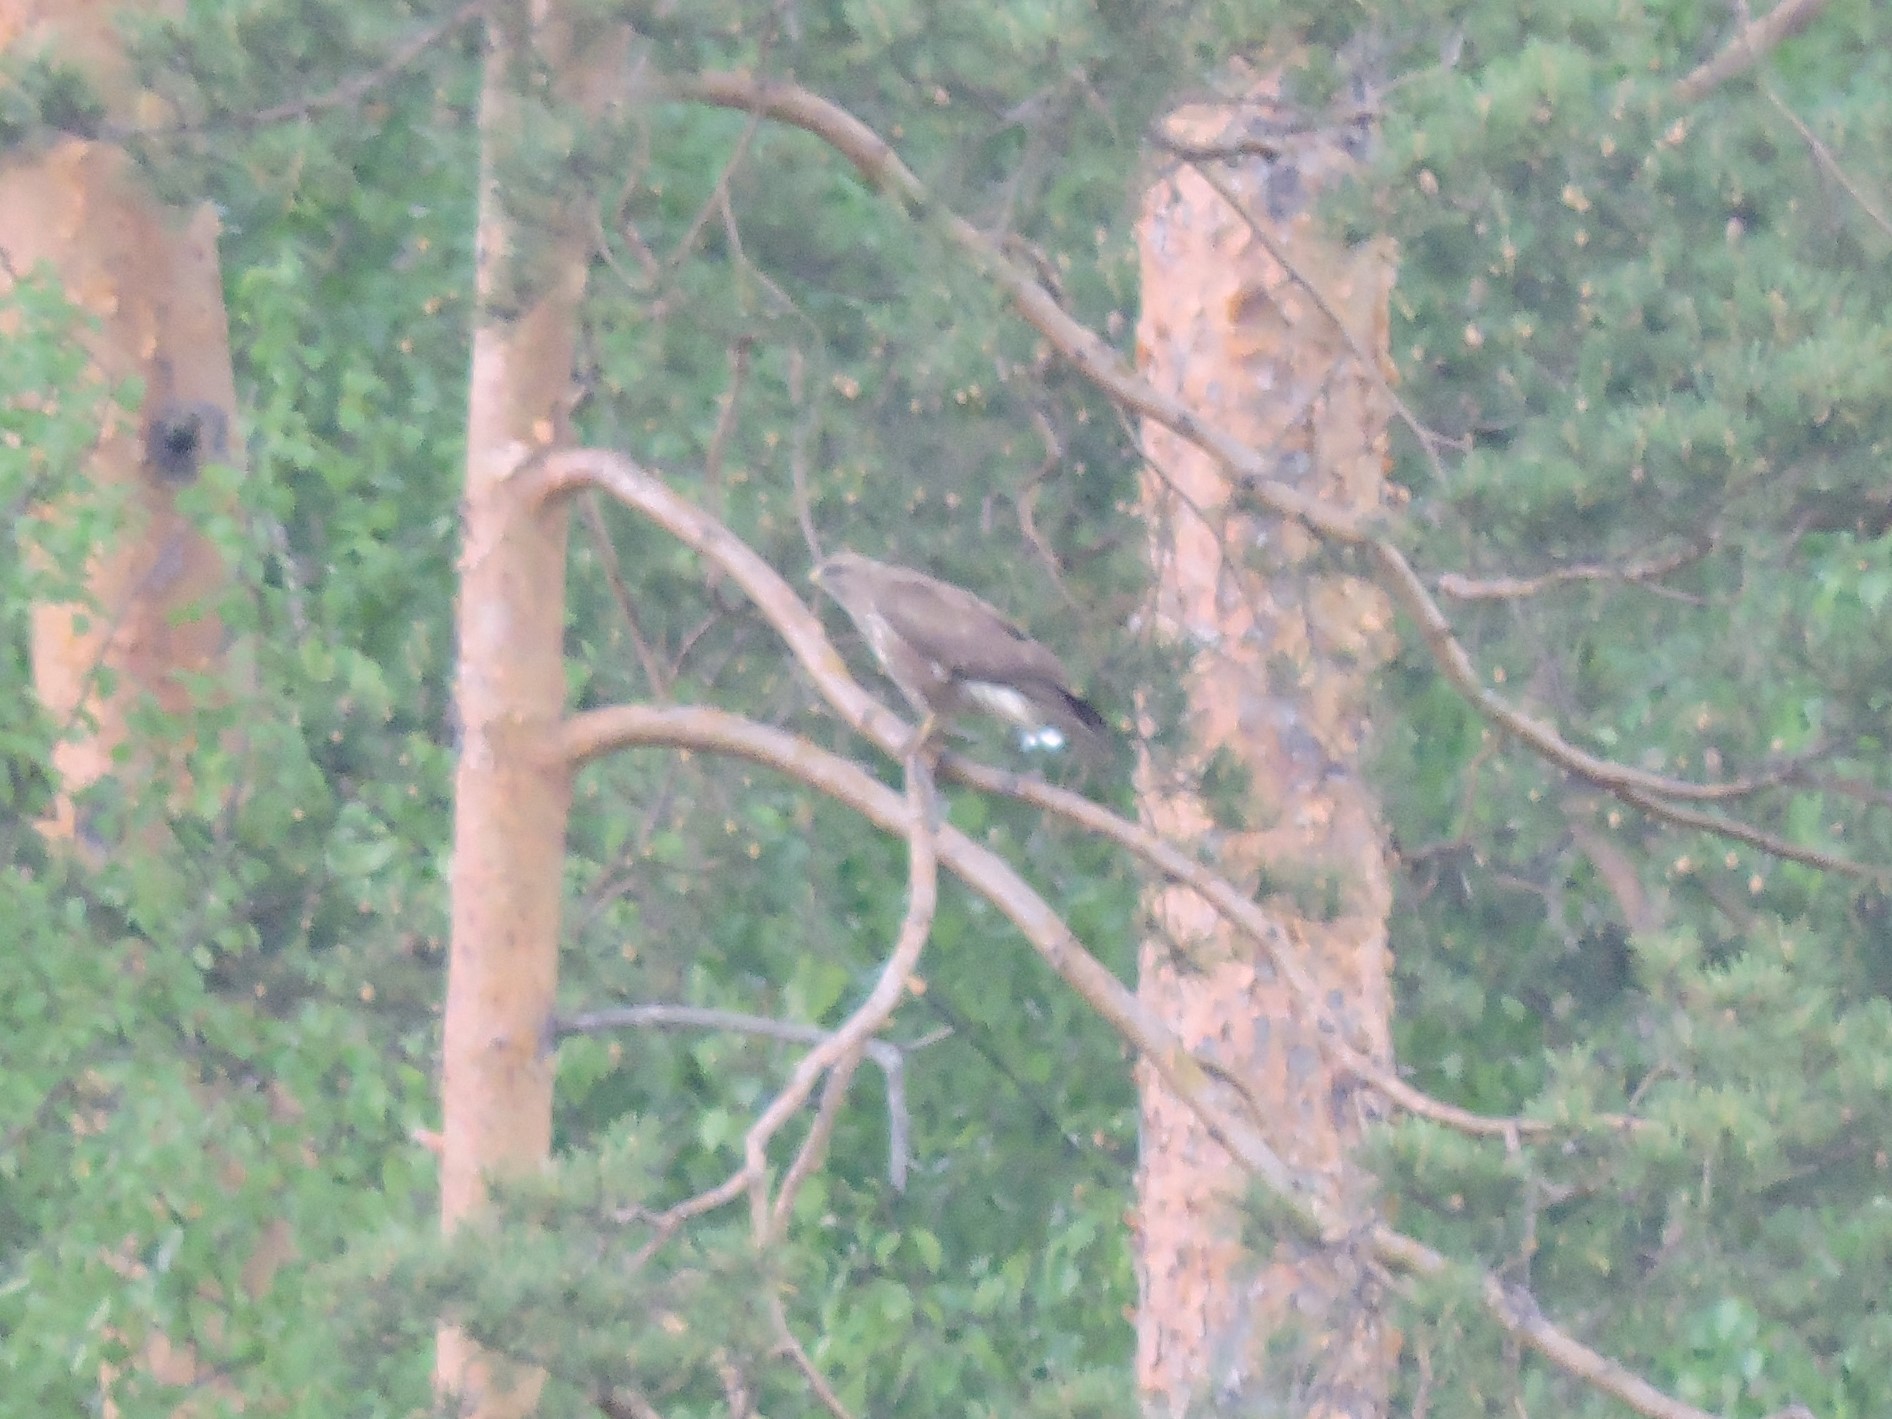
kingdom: Animalia
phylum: Chordata
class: Aves
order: Accipitriformes
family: Accipitridae
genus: Buteo
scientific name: Buteo buteo
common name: Common buzzard
